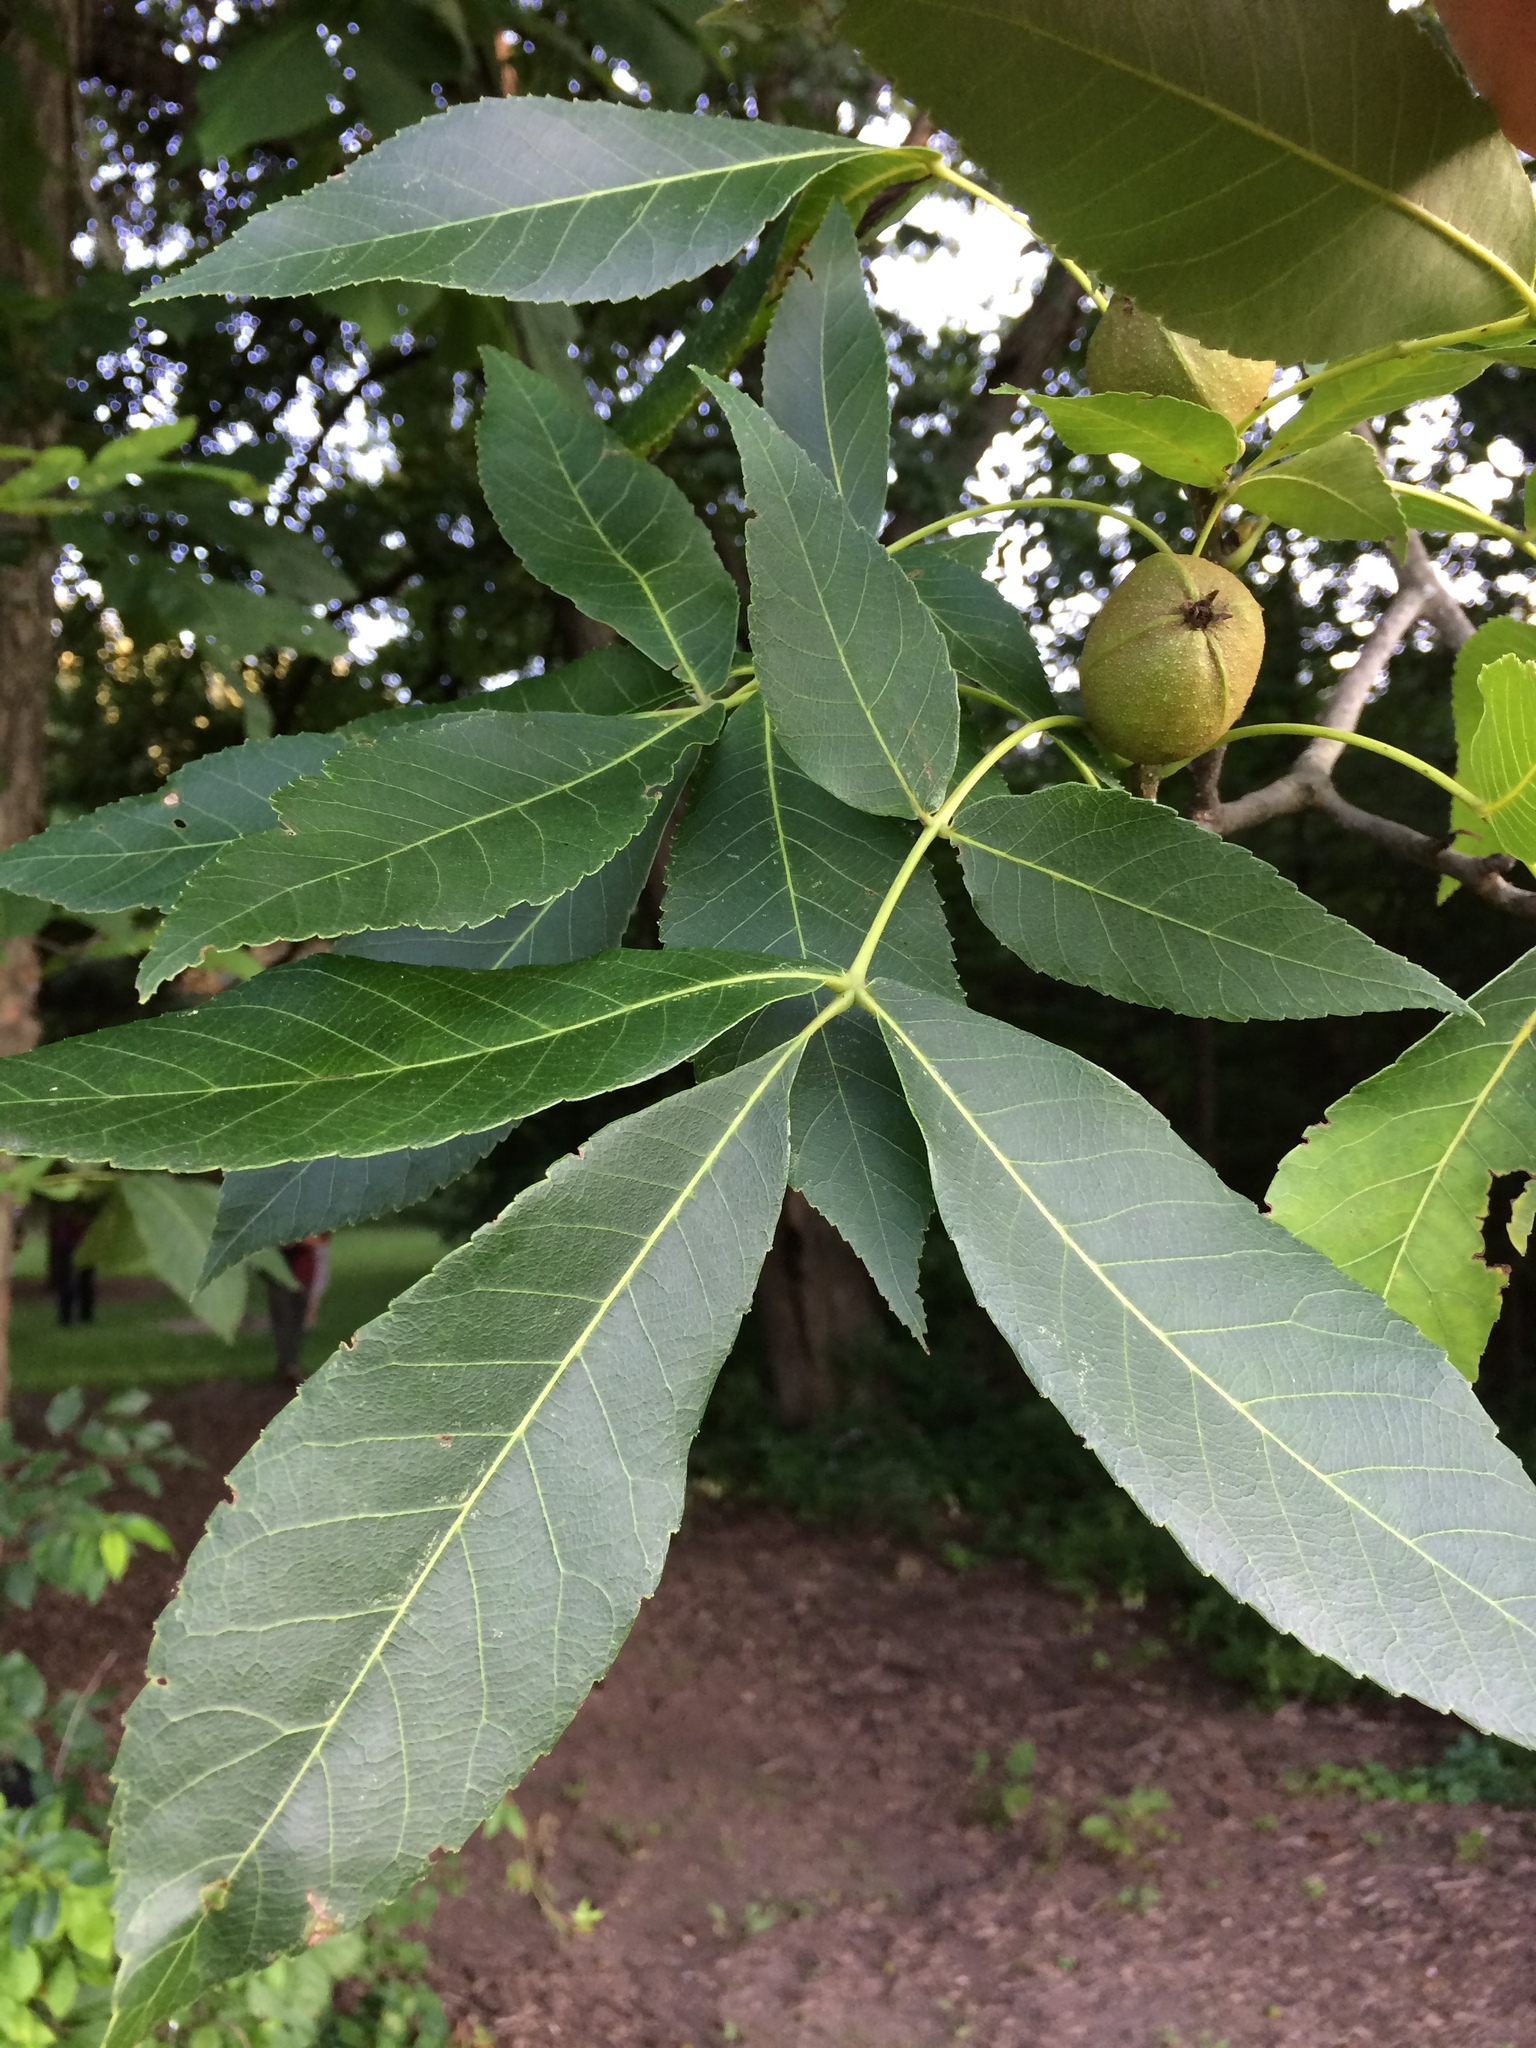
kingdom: Plantae
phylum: Tracheophyta
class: Magnoliopsida
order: Fagales
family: Juglandaceae
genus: Carya
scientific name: Carya ovata
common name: Shagbark hickory
